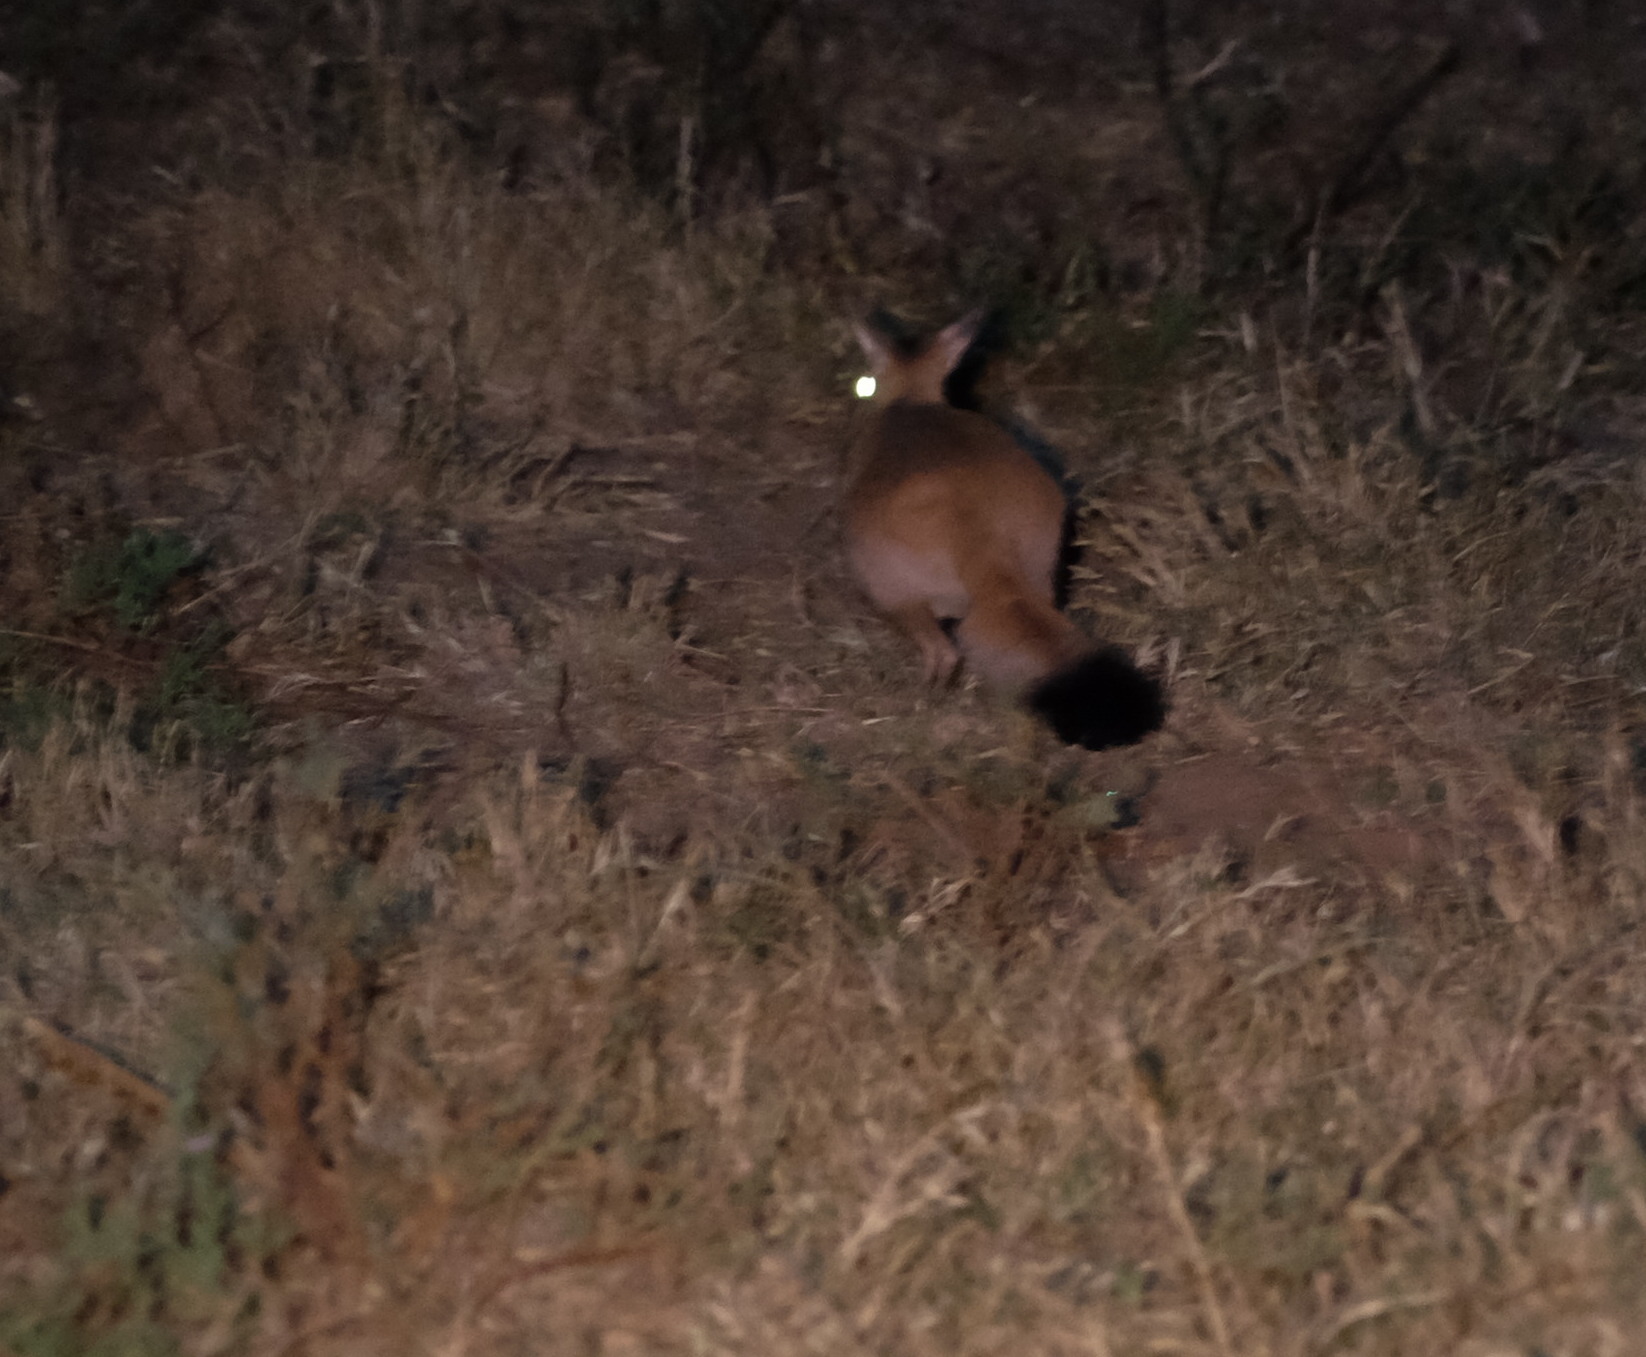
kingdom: Animalia
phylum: Chordata
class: Mammalia
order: Rodentia
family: Pedetidae
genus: Pedetes
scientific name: Pedetes capensis
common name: South african spring hare
